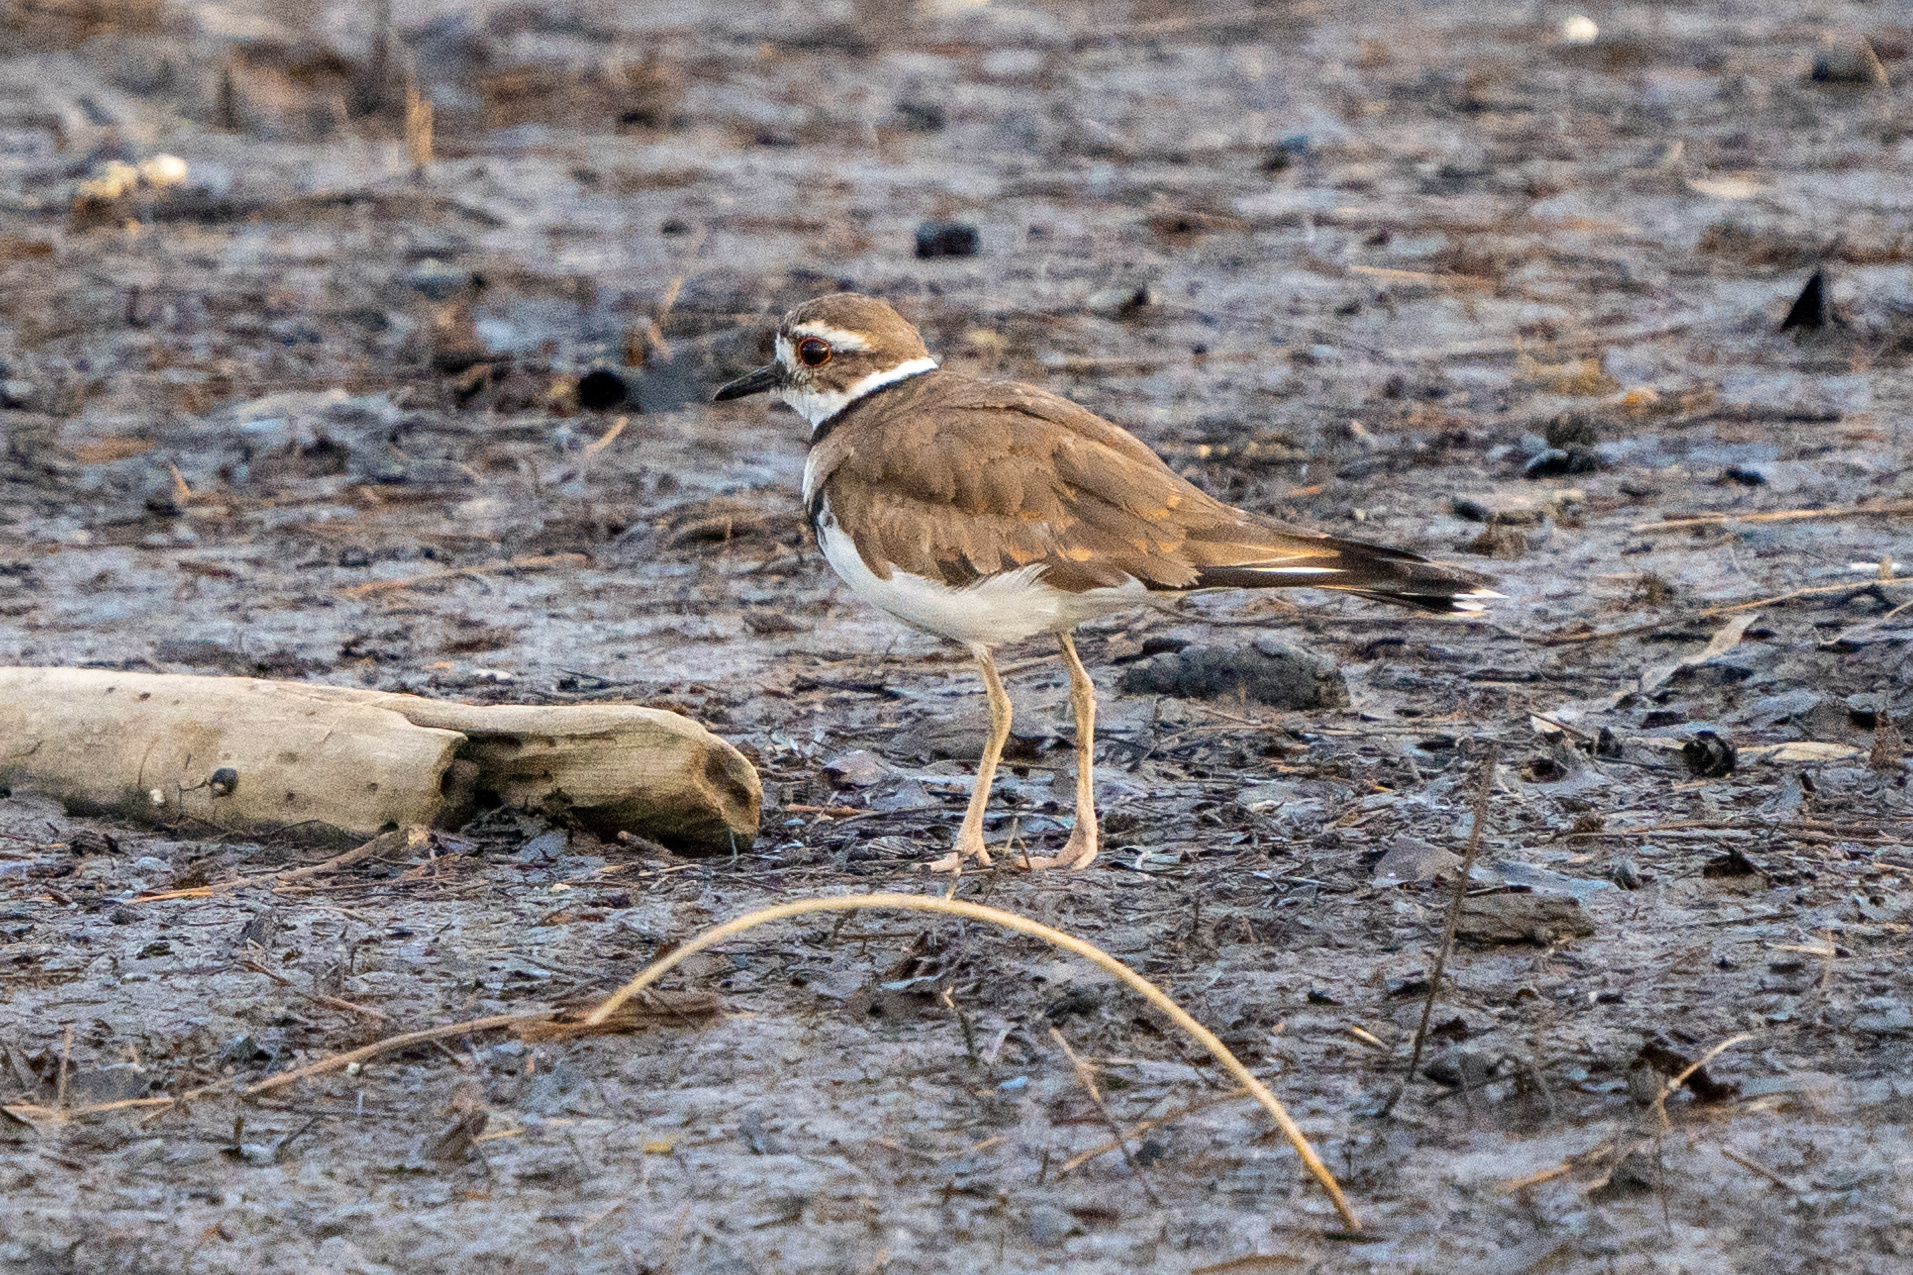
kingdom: Animalia
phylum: Chordata
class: Aves
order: Charadriiformes
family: Charadriidae
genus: Charadrius
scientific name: Charadrius vociferus
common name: Killdeer
